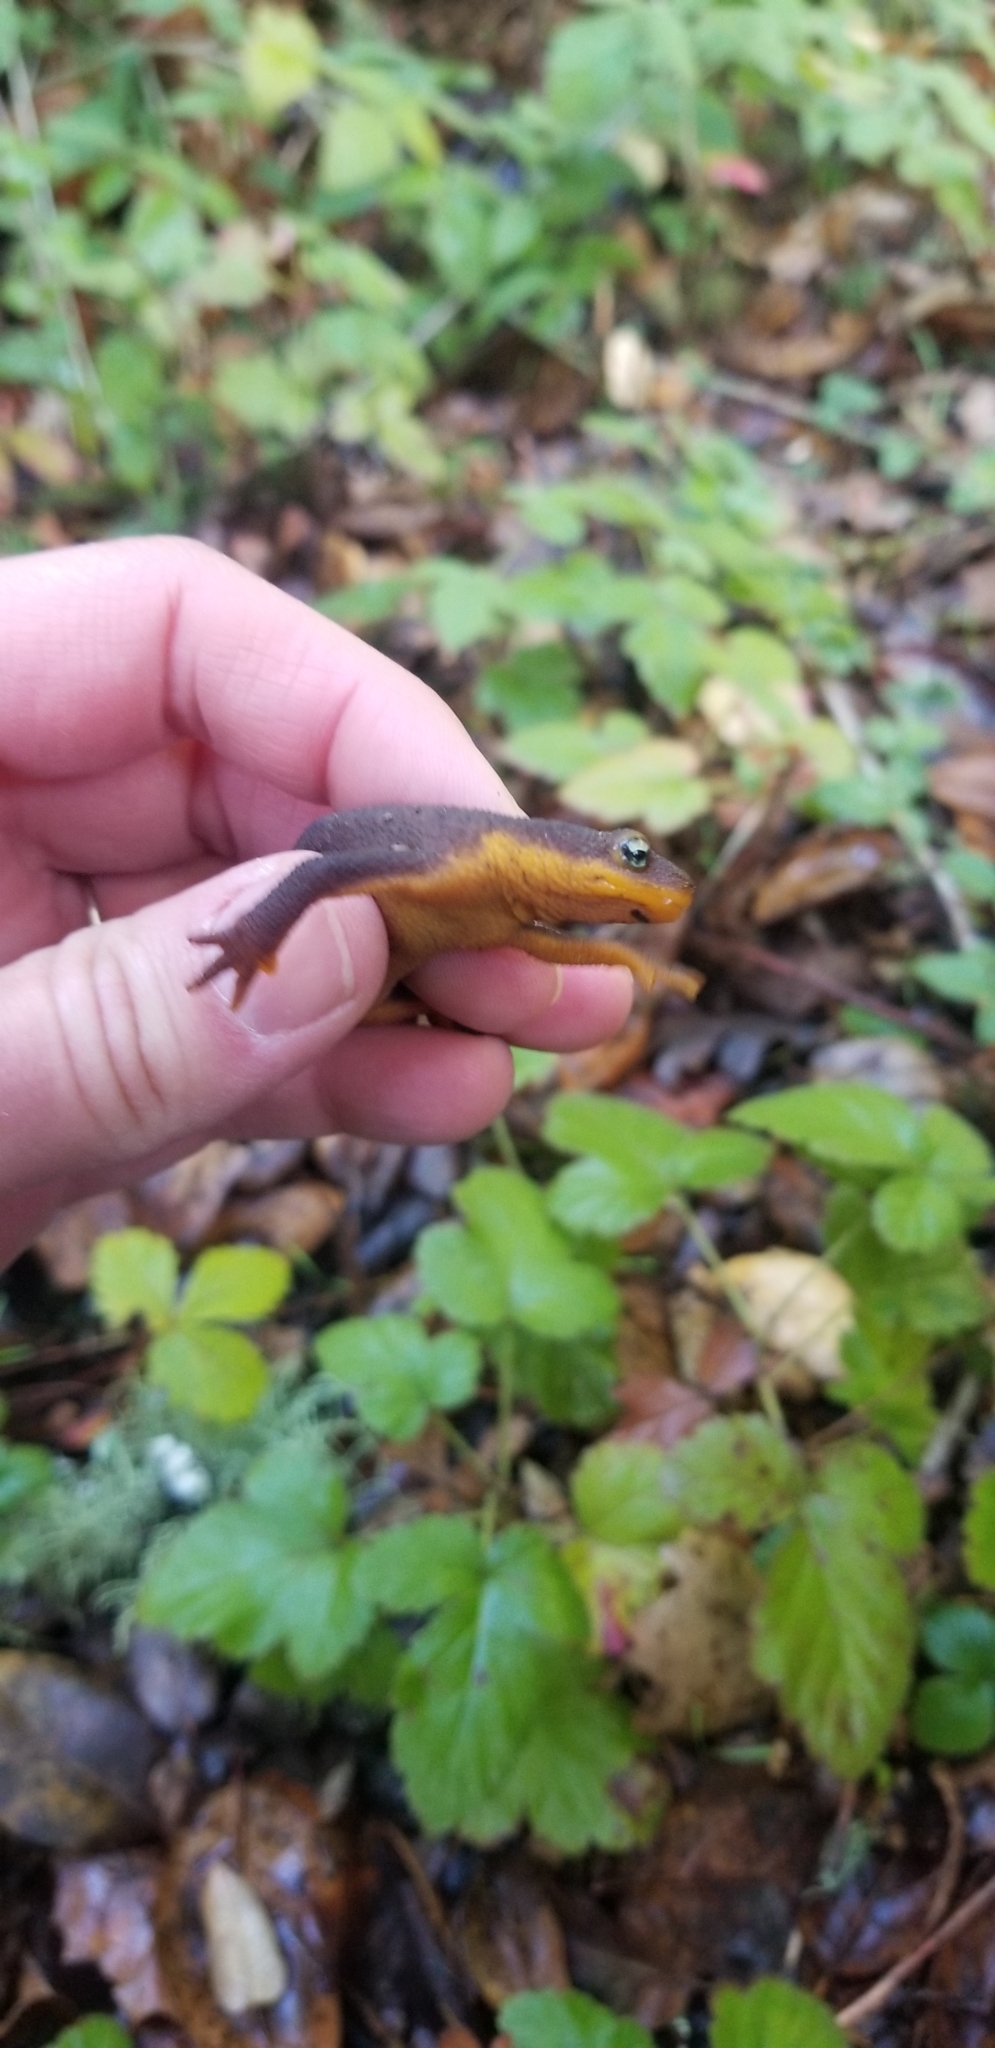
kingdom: Animalia
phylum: Chordata
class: Amphibia
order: Caudata
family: Salamandridae
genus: Taricha
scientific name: Taricha granulosa
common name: Roughskin newt
